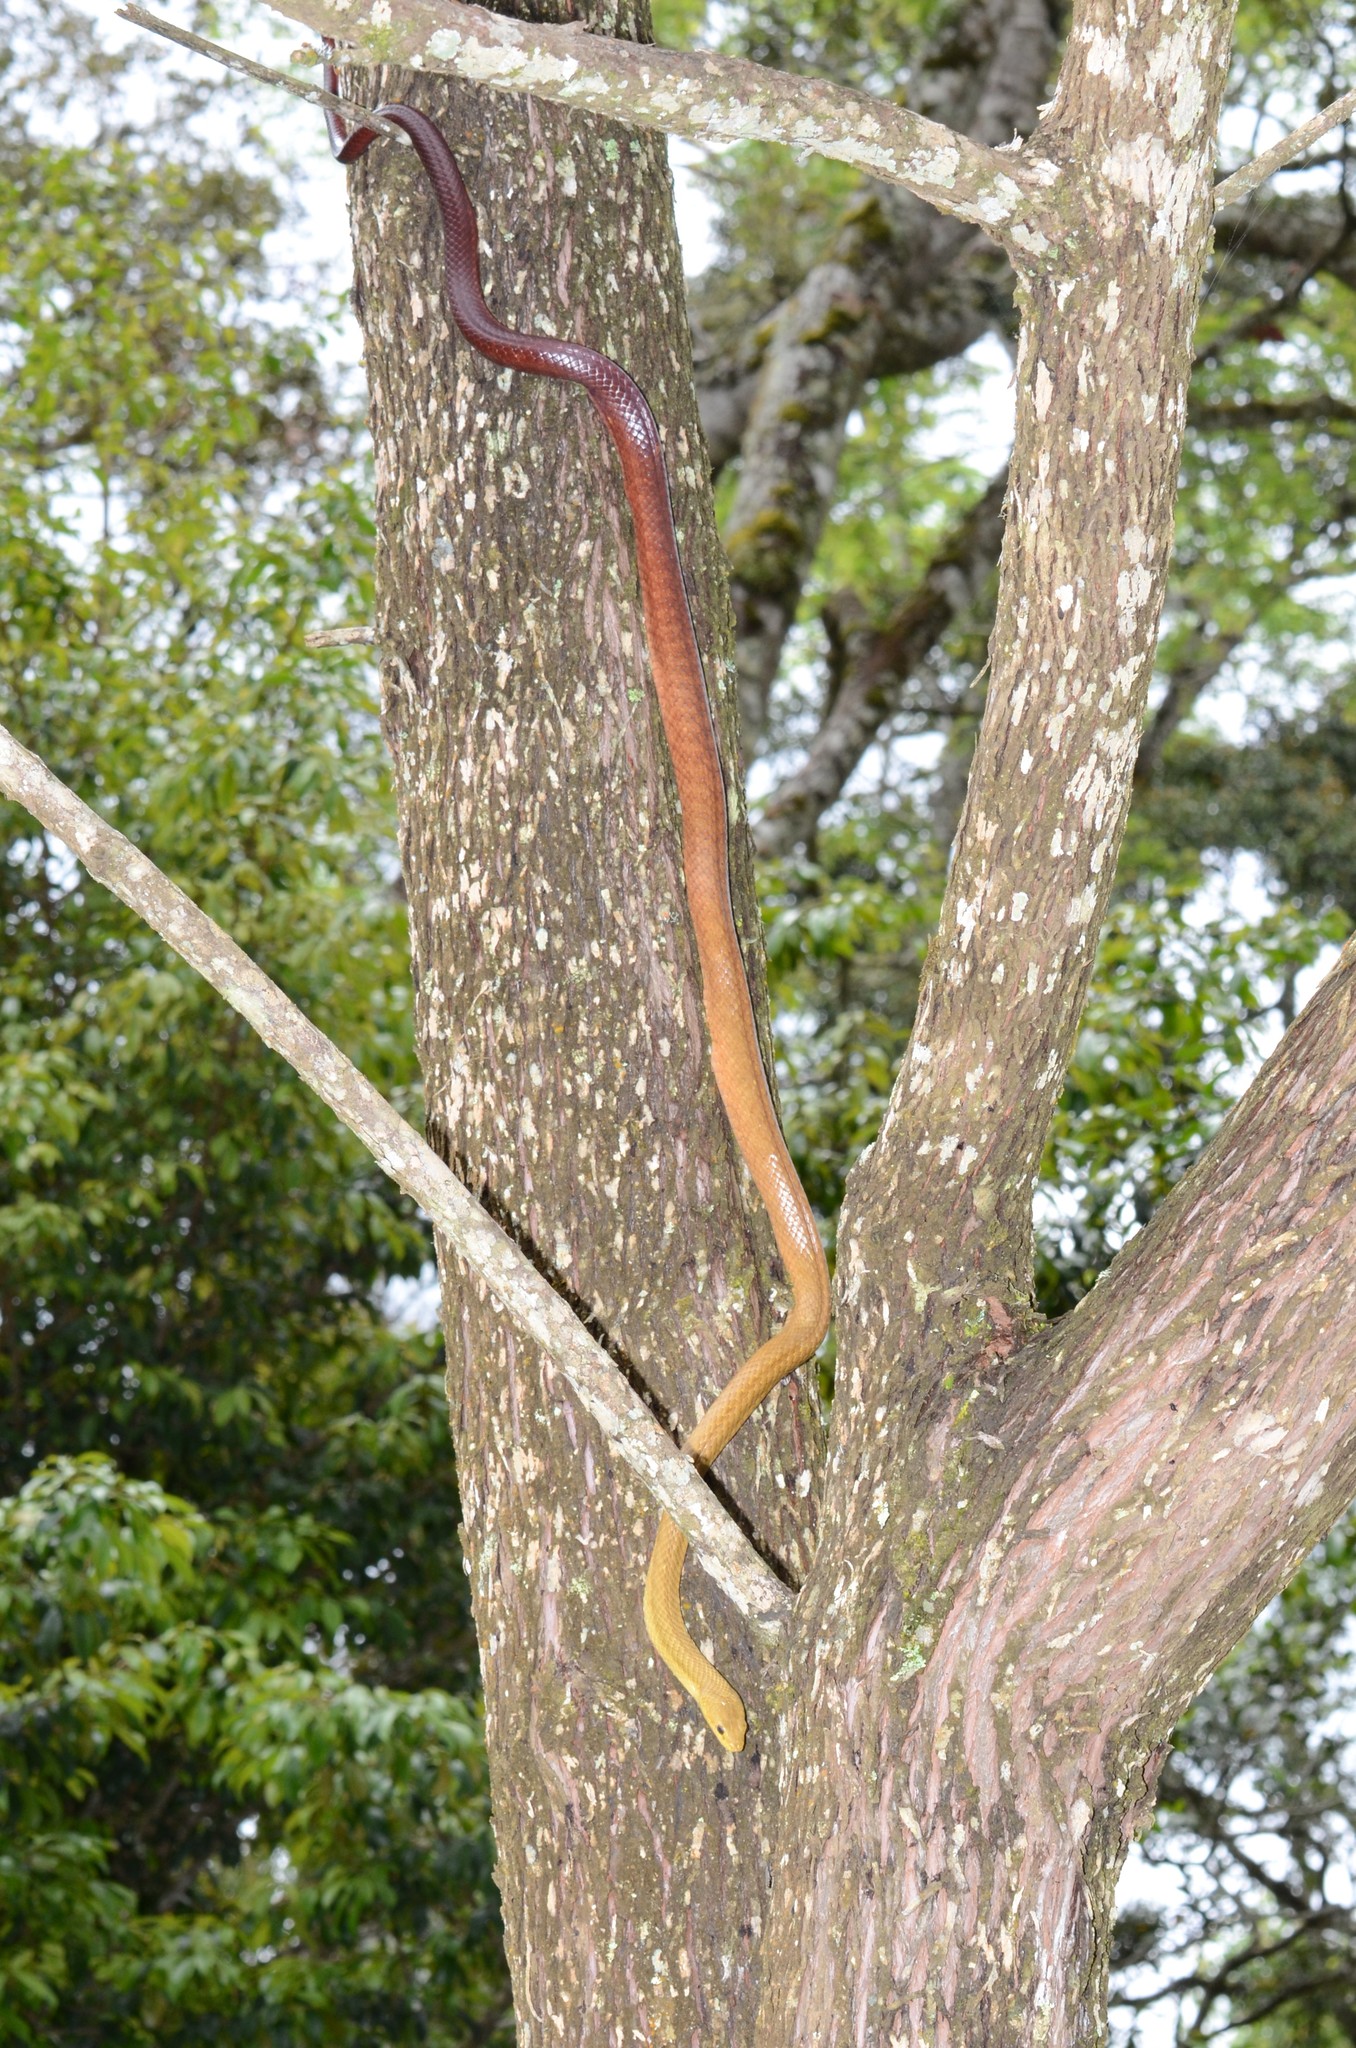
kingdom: Animalia
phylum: Chordata
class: Squamata
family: Pseudoxyrhophiidae
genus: Ithycyphus
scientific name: Ithycyphus perineti
